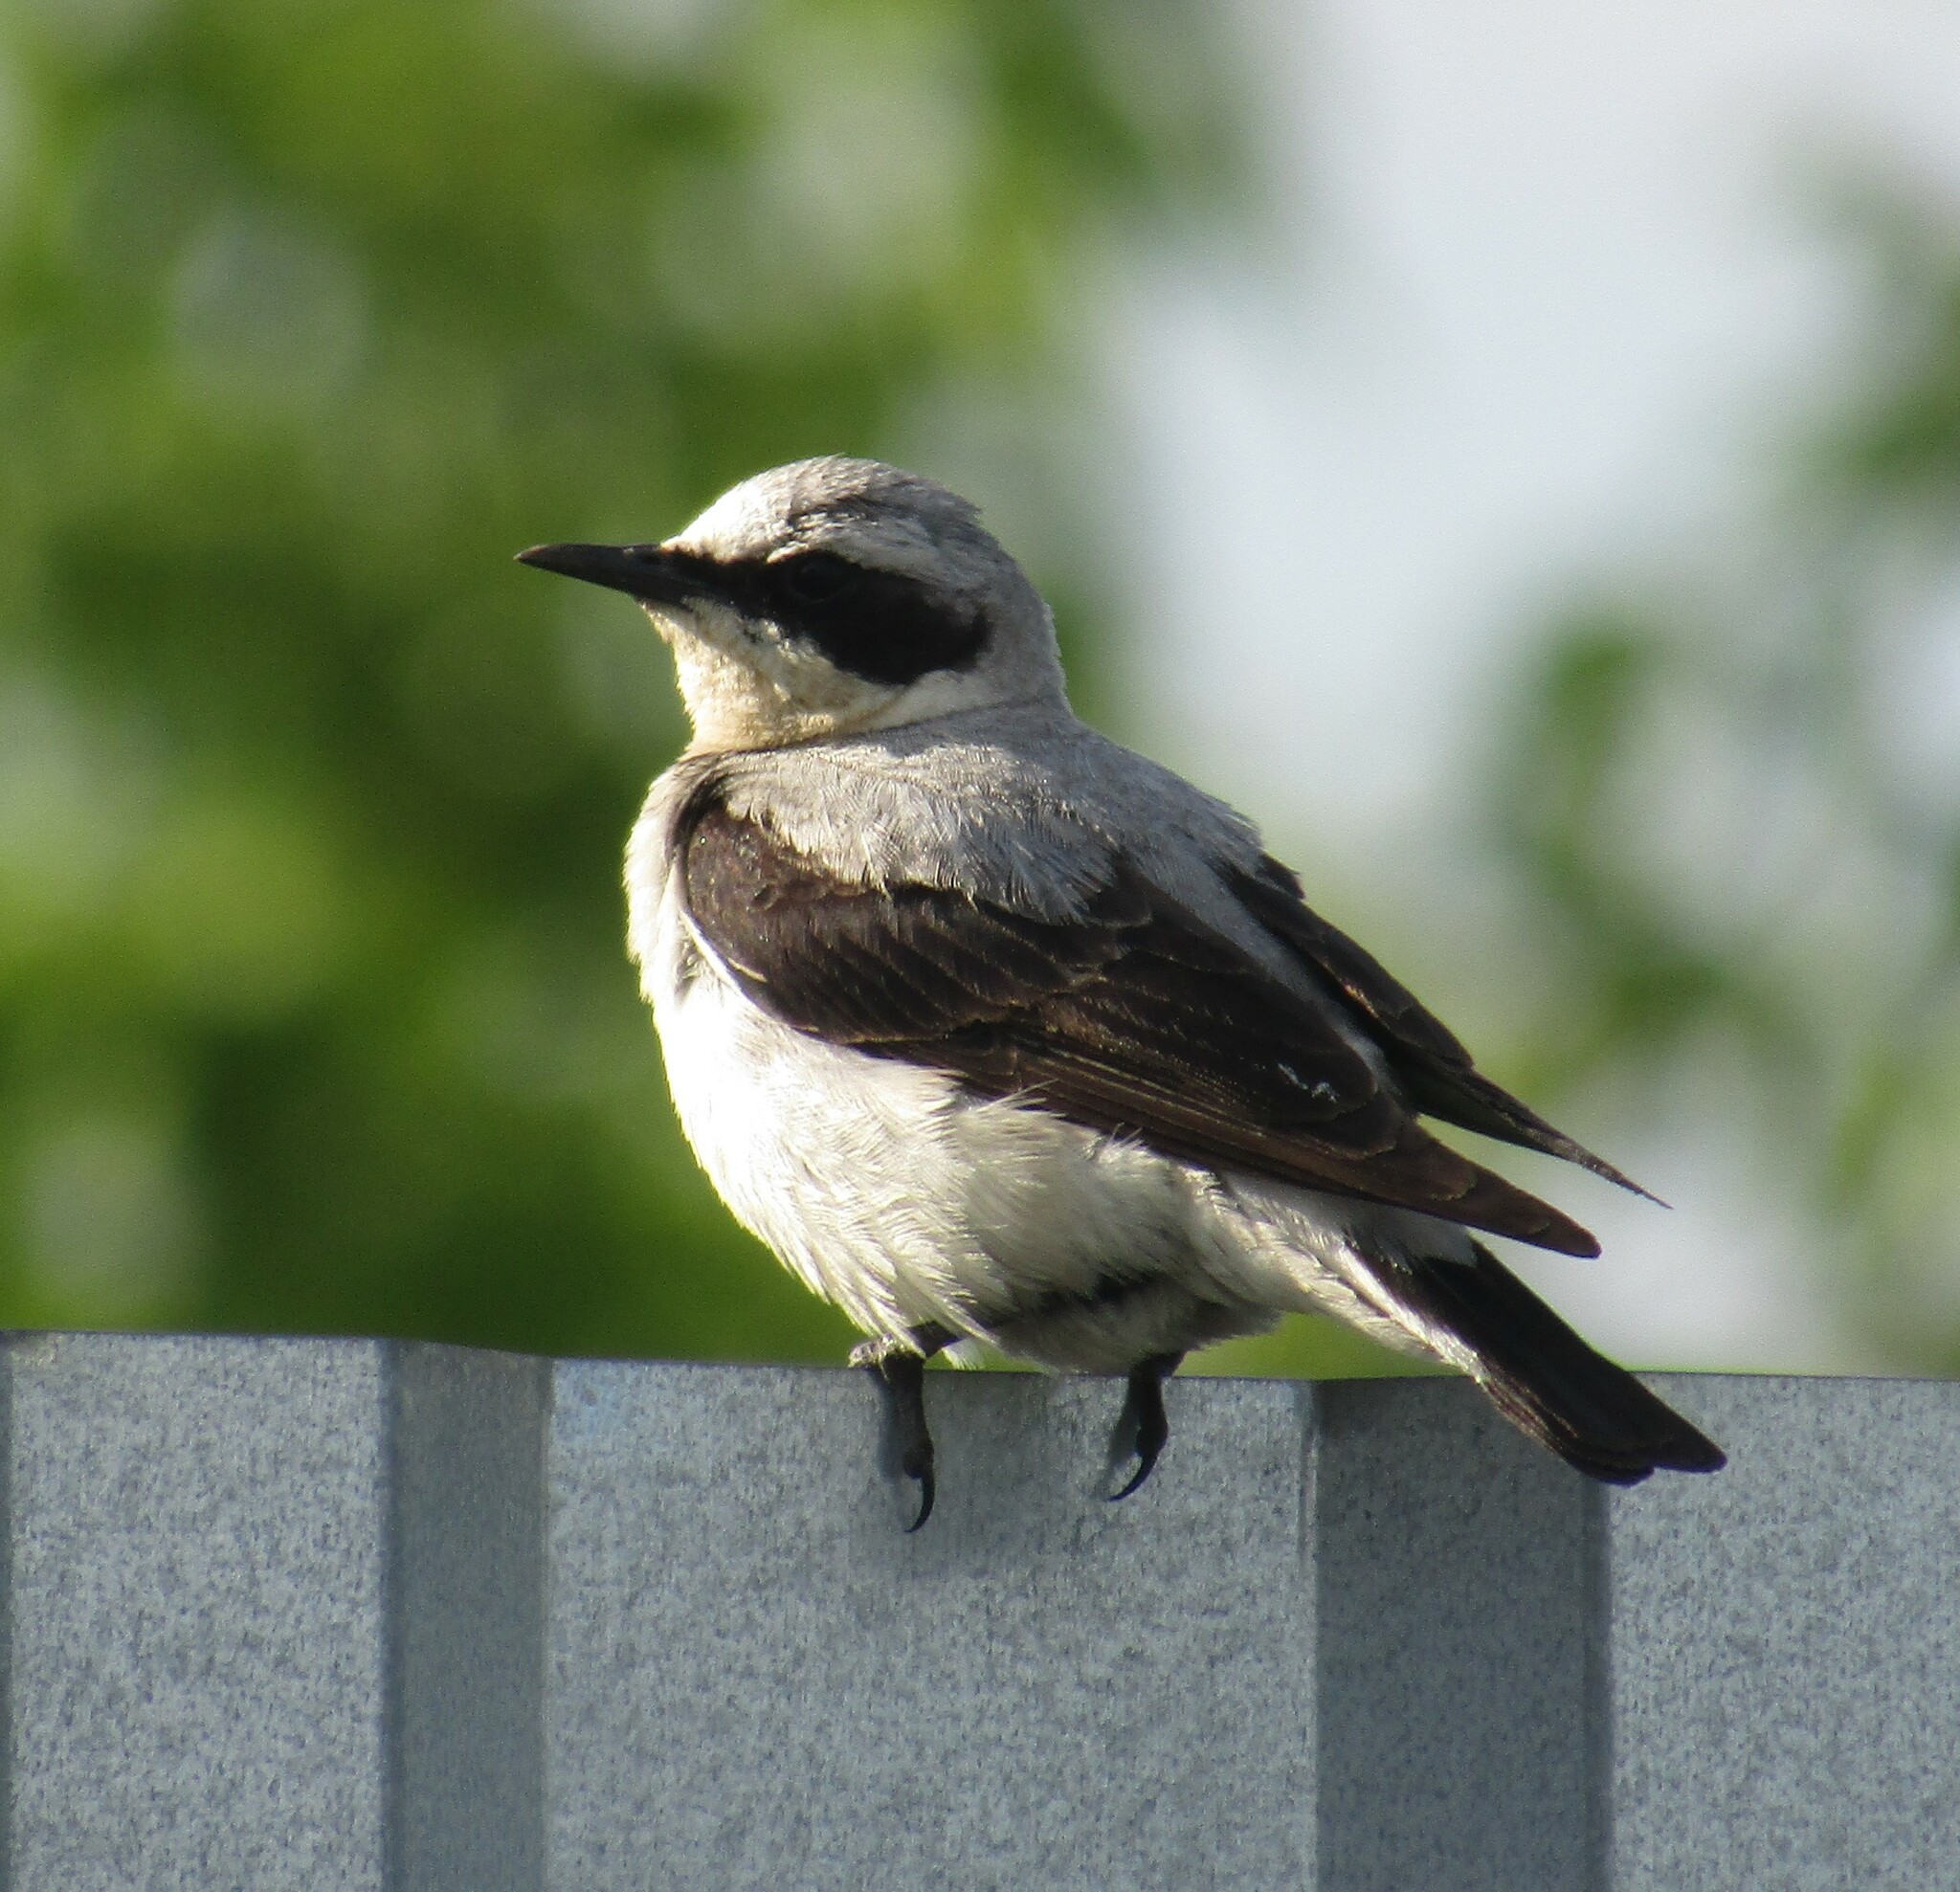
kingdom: Animalia
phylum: Chordata
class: Aves
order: Passeriformes
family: Muscicapidae
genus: Oenanthe
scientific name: Oenanthe oenanthe
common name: Northern wheatear
